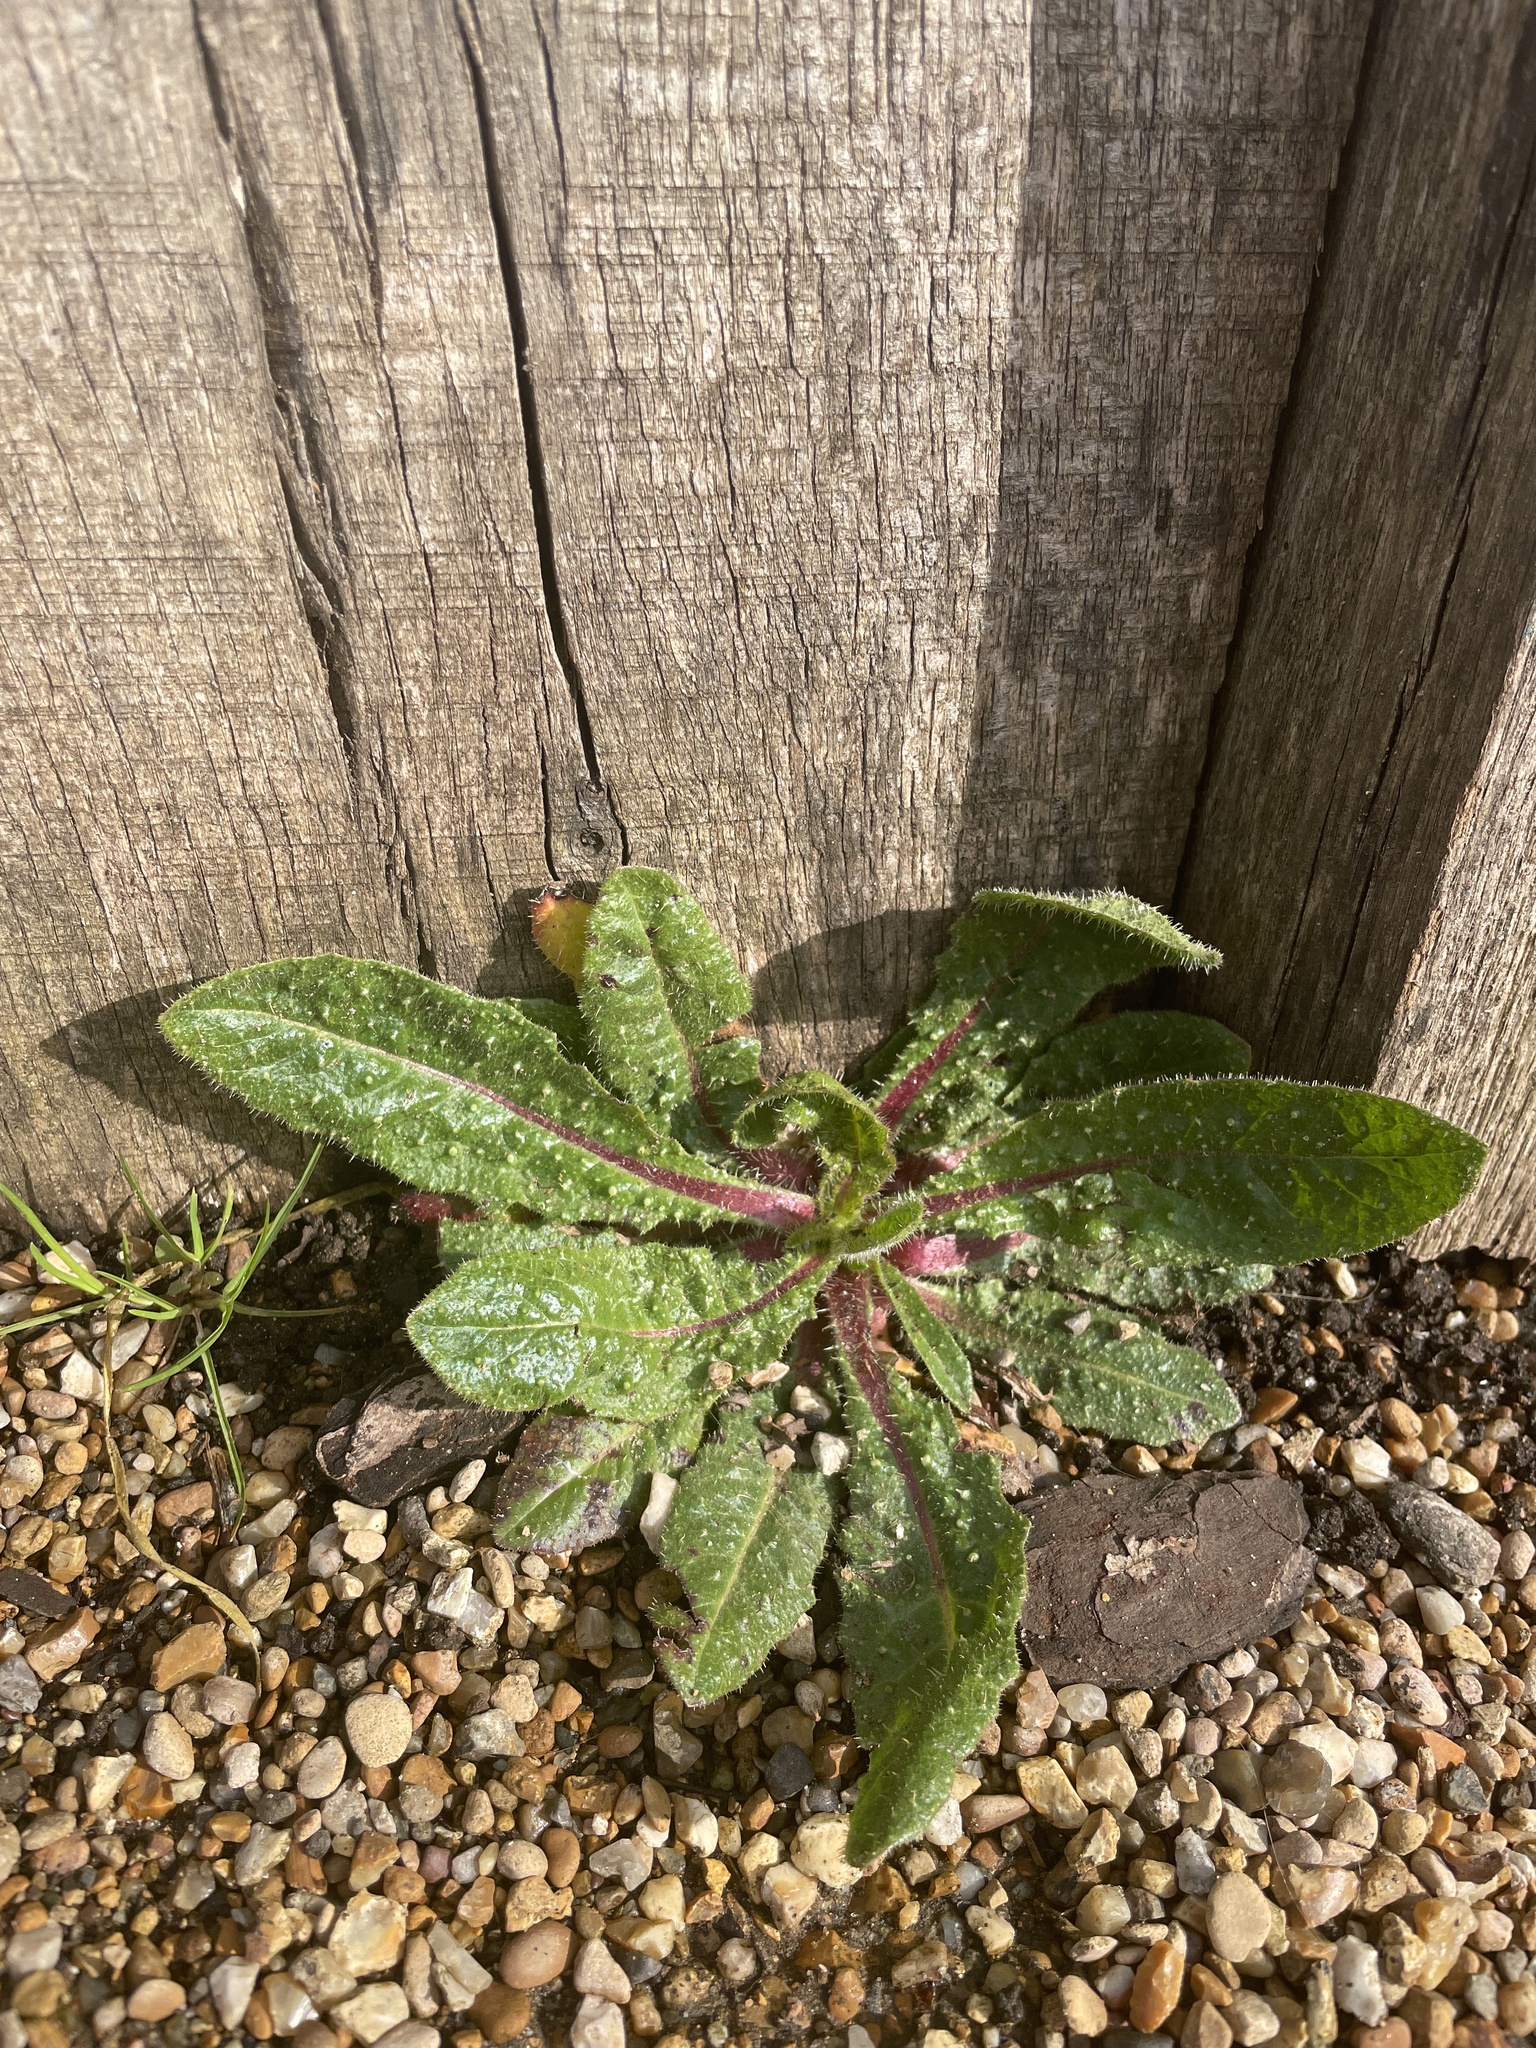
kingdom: Plantae
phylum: Tracheophyta
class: Magnoliopsida
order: Asterales
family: Asteraceae
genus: Helminthotheca
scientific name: Helminthotheca echioides
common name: Ox-tongue
